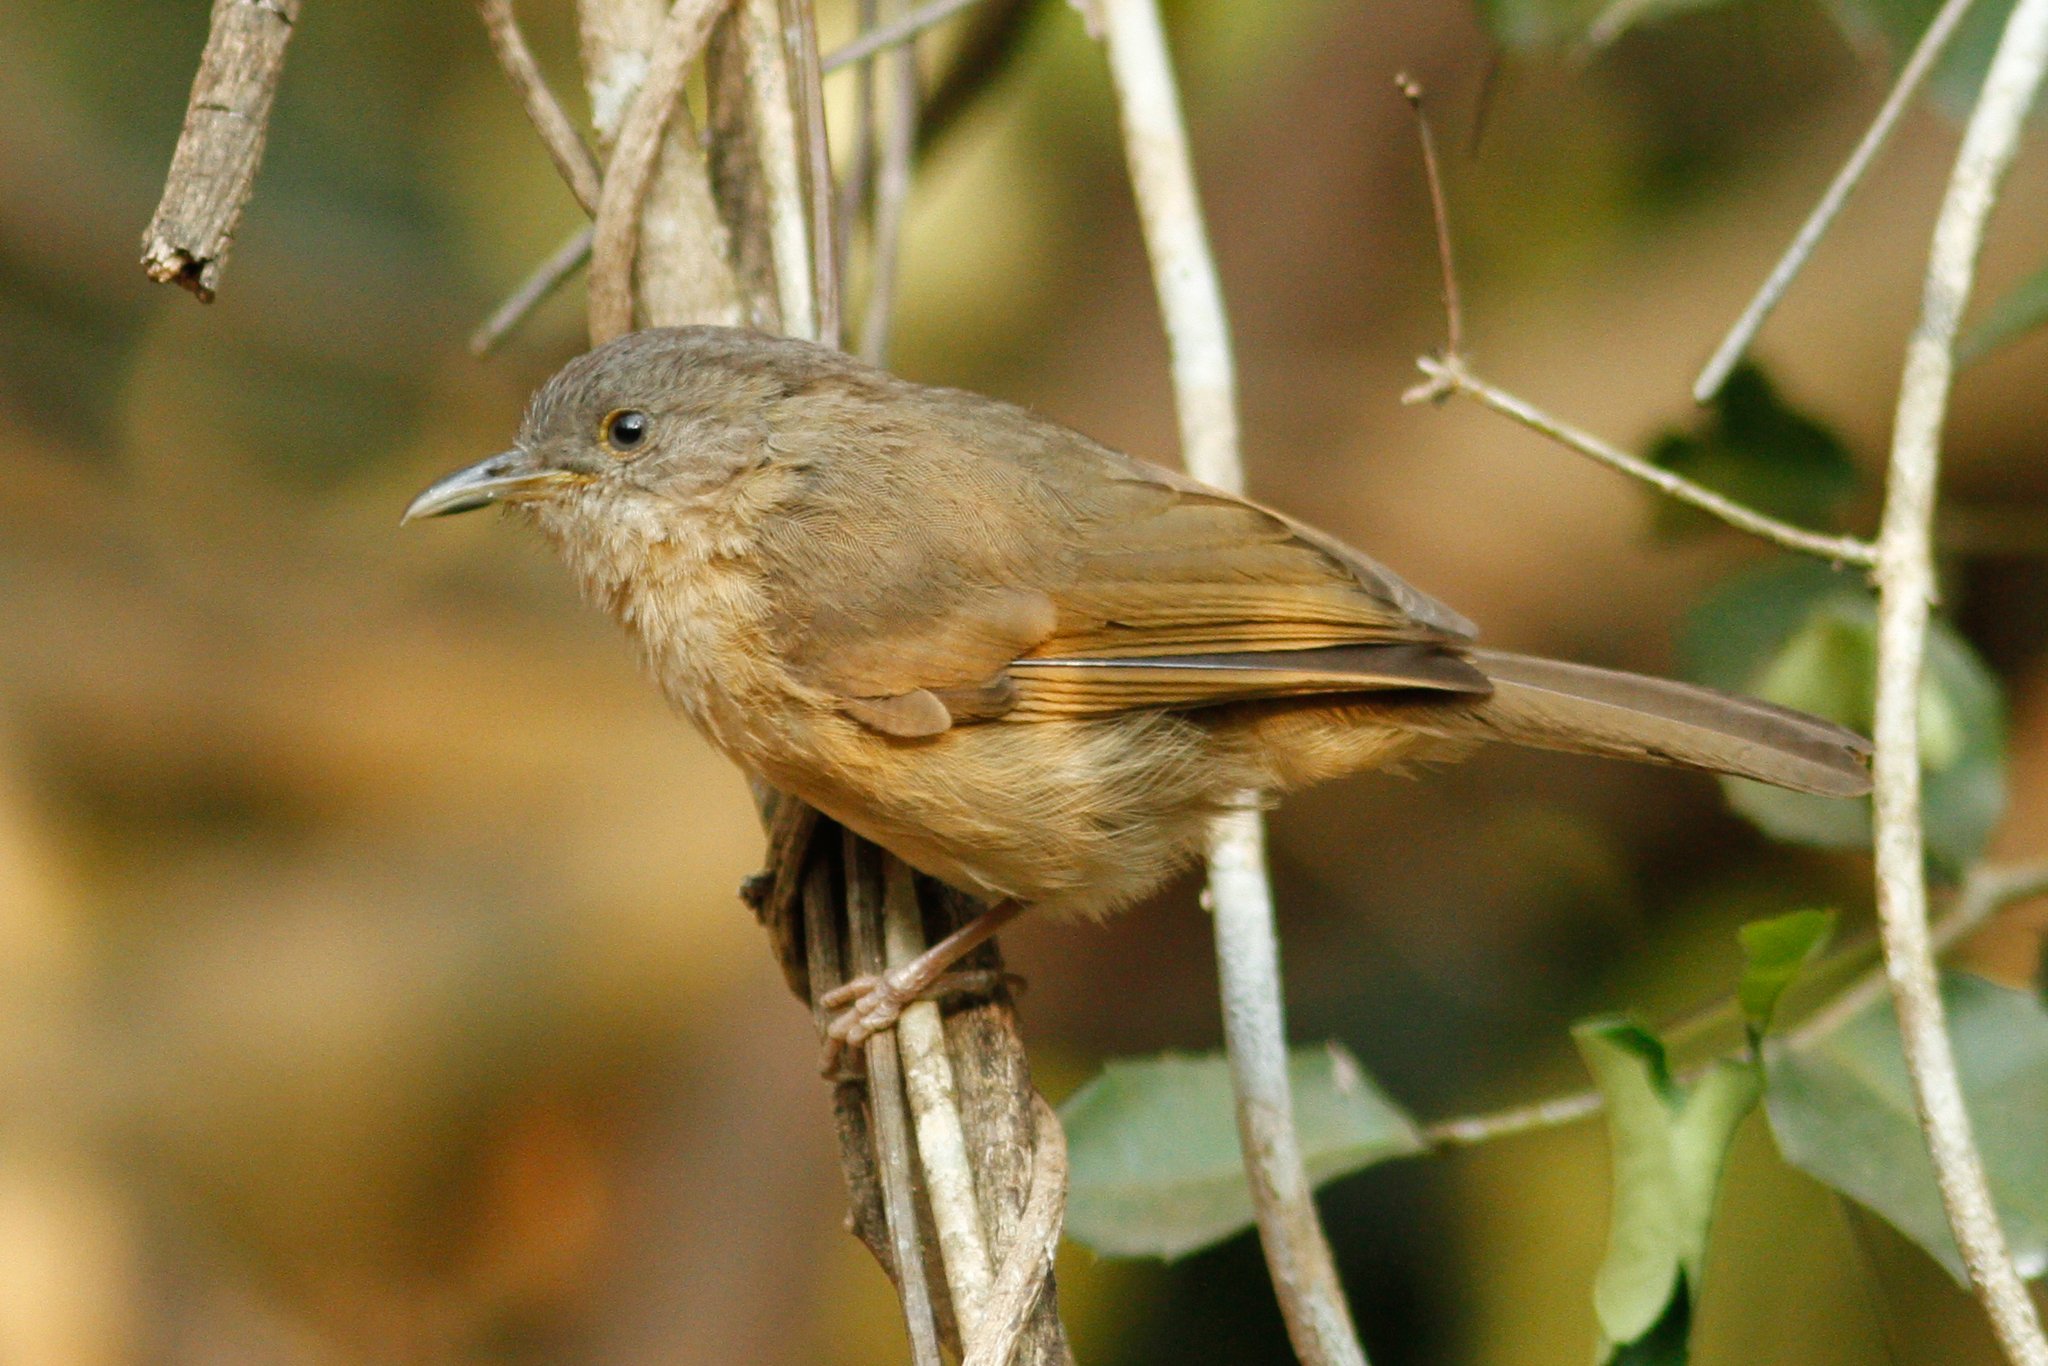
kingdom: Animalia
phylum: Chordata
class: Aves
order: Passeriformes
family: Pellorneidae
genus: Alcippe
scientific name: Alcippe poioicephala
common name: Brown-cheeked fulvetta
